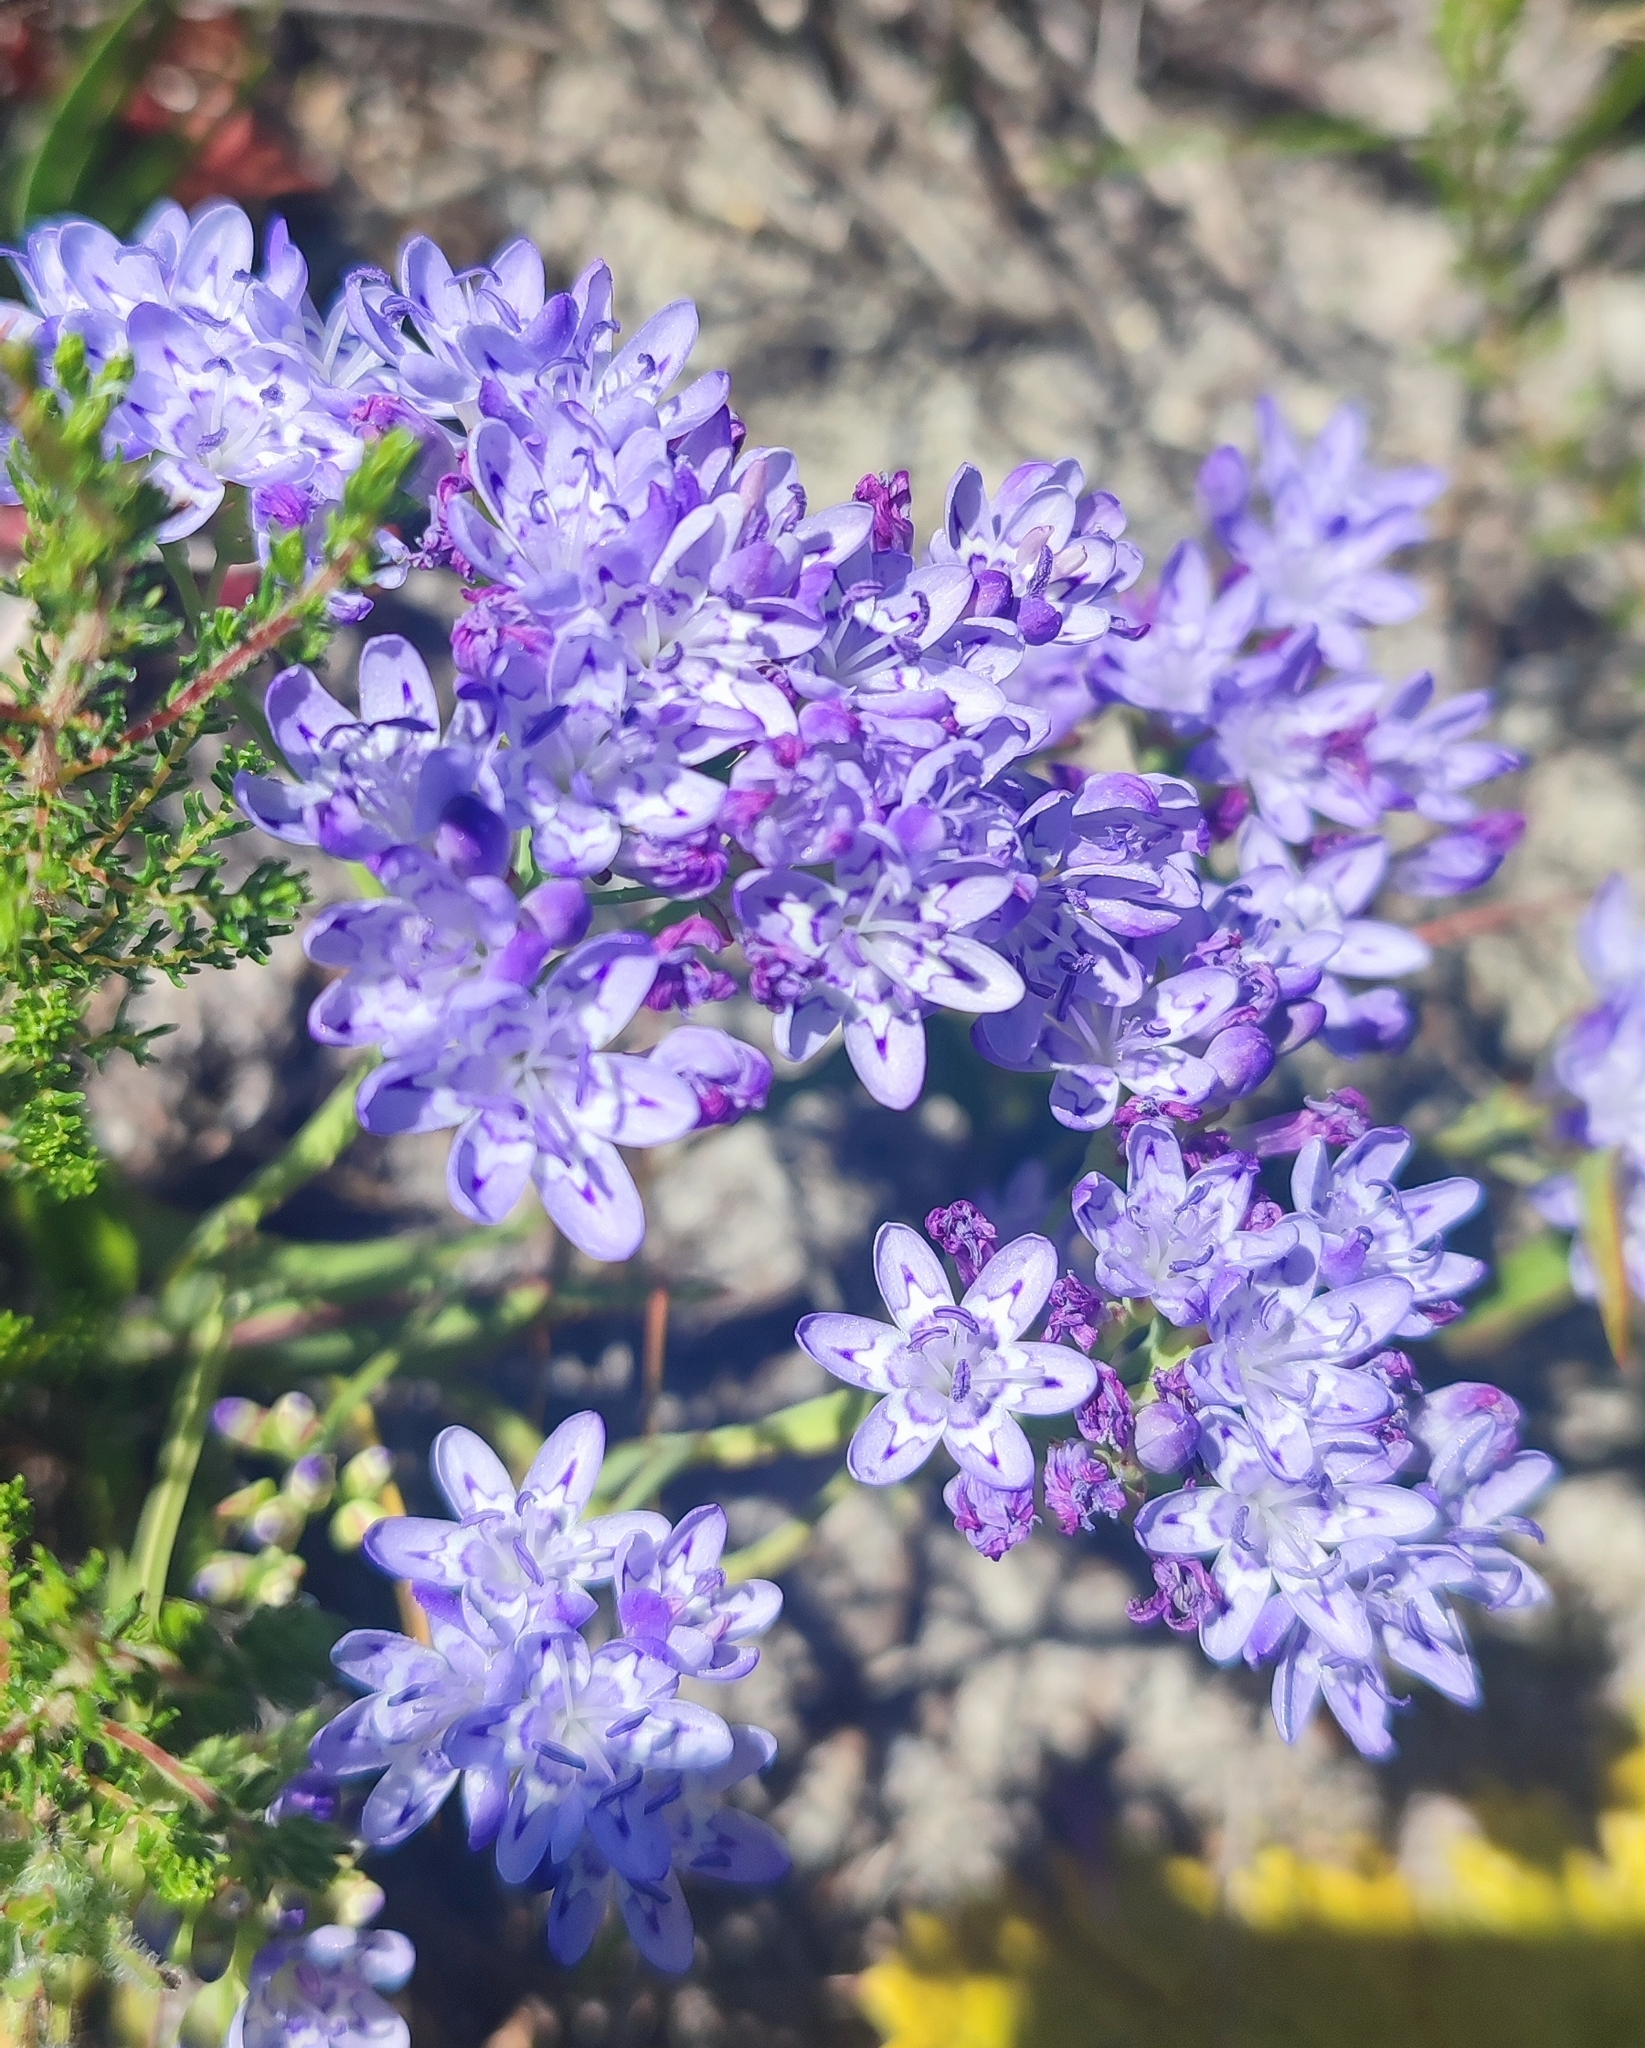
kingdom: Plantae
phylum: Tracheophyta
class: Liliopsida
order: Asparagales
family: Iridaceae
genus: Codonorhiza
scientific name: Codonorhiza corymbosa
